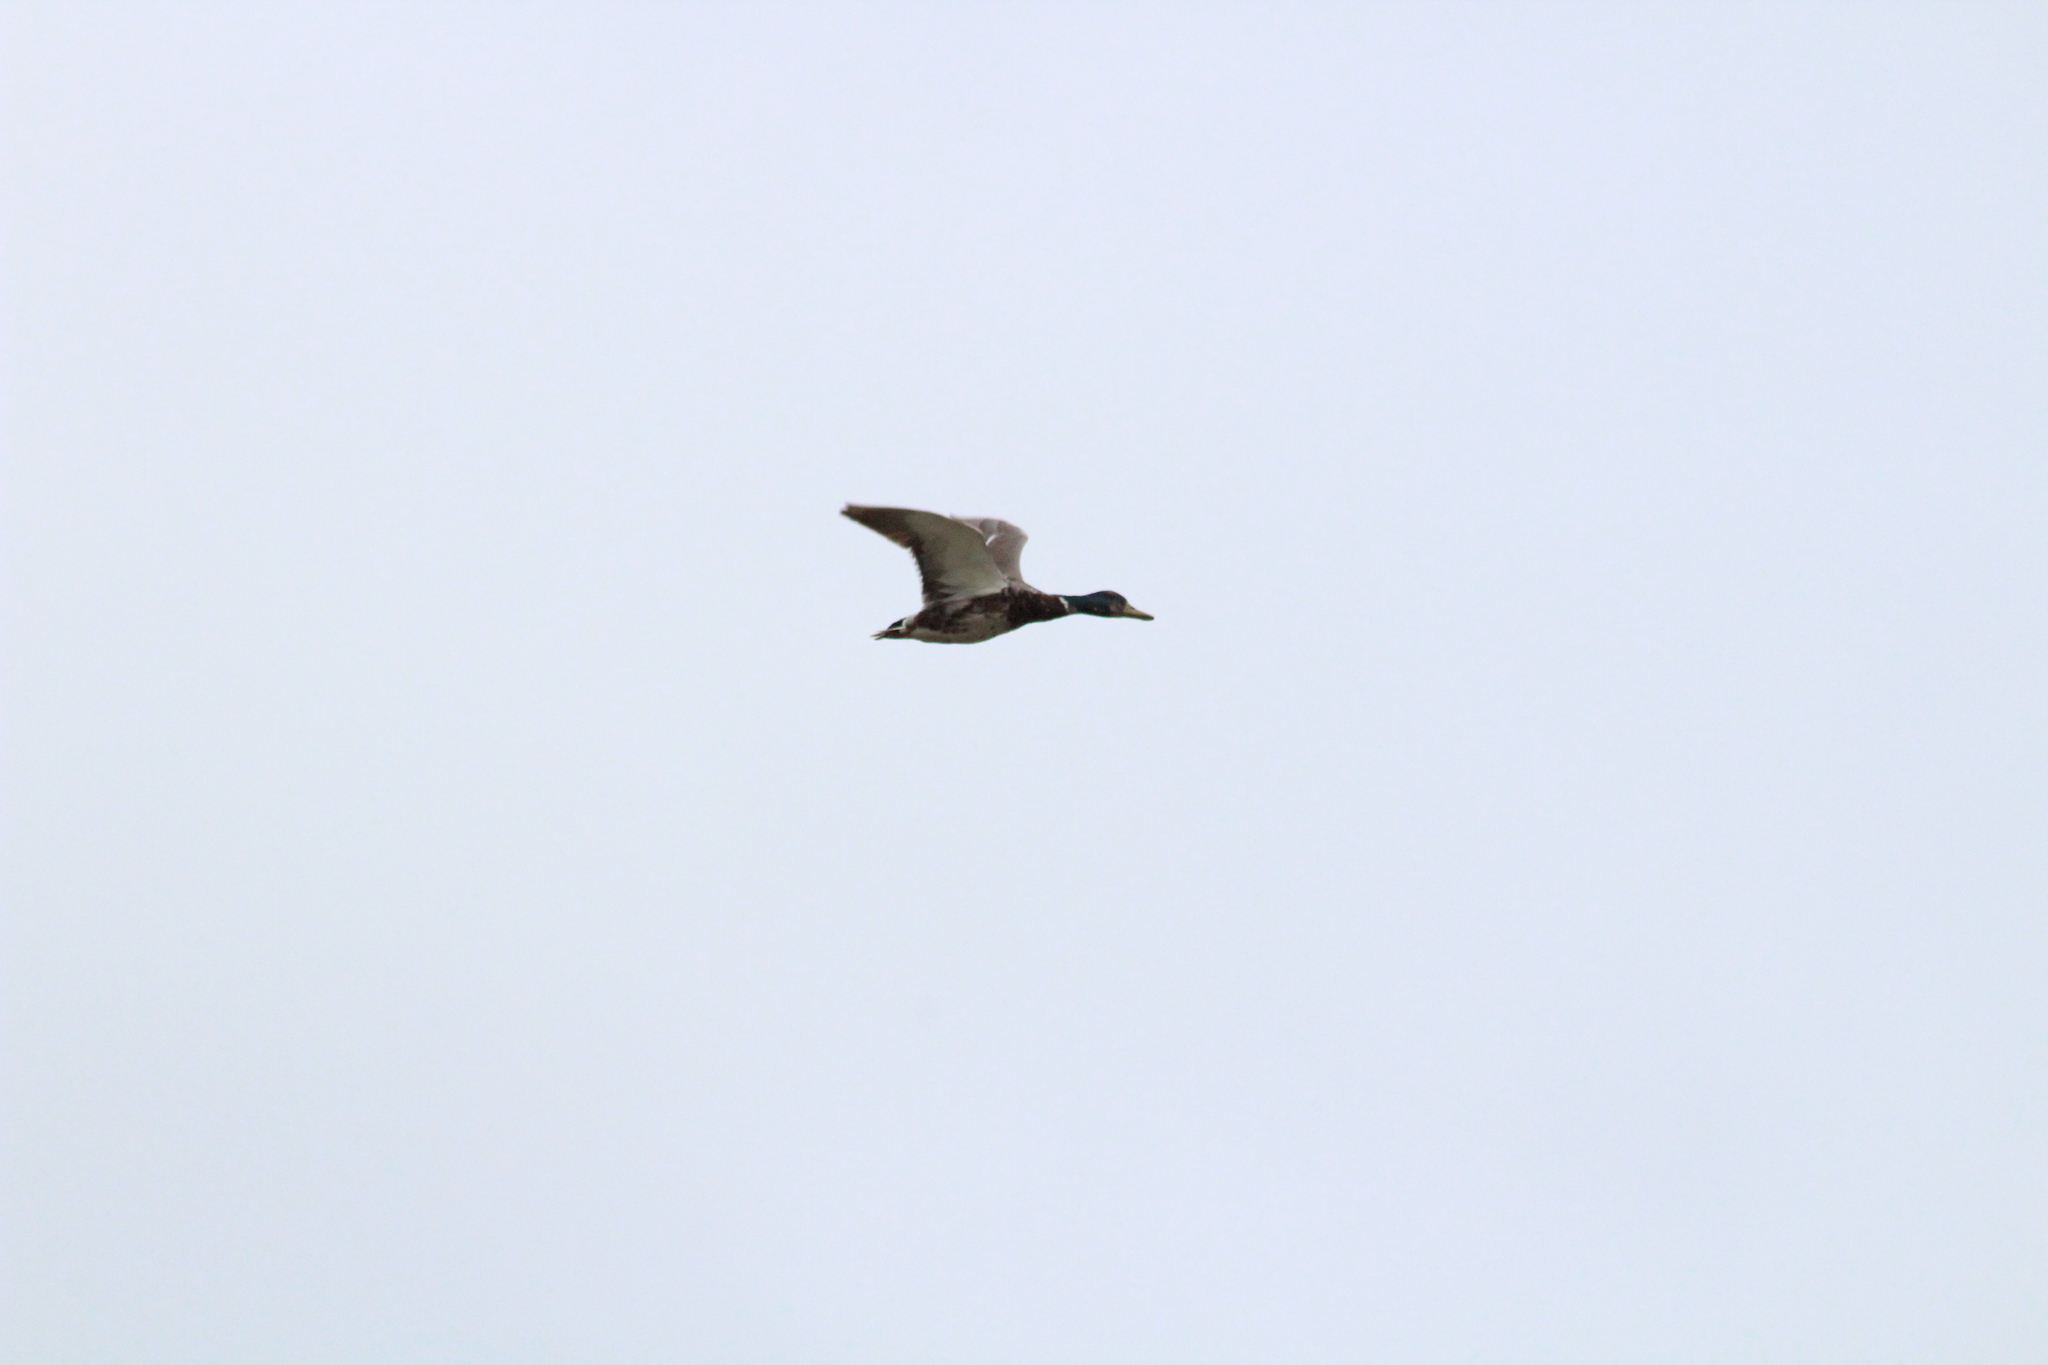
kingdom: Animalia
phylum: Chordata
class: Aves
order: Anseriformes
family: Anatidae
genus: Anas
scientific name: Anas platyrhynchos
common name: Mallard
